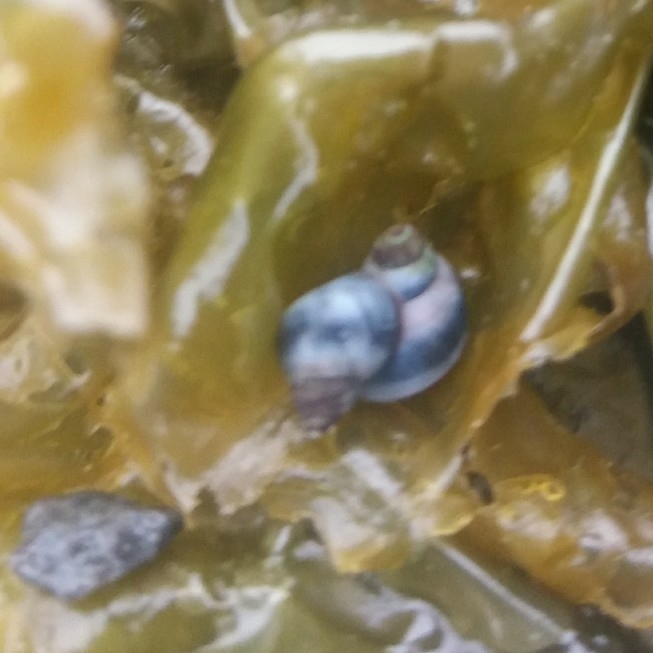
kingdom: Animalia
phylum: Mollusca
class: Gastropoda
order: Littorinimorpha
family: Littorinidae
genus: Austrolittorina
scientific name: Austrolittorina antipodum
